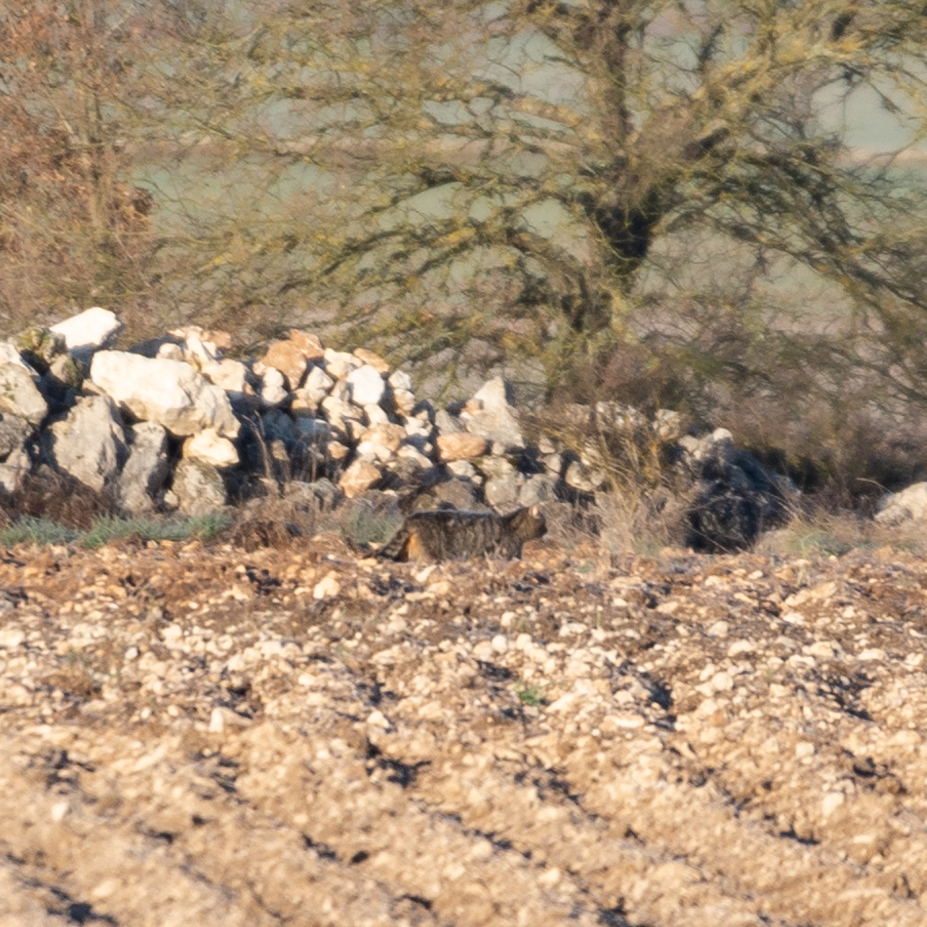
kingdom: Animalia
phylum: Chordata
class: Mammalia
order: Carnivora
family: Felidae
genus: Felis
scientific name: Felis silvestris
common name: Wildcat
